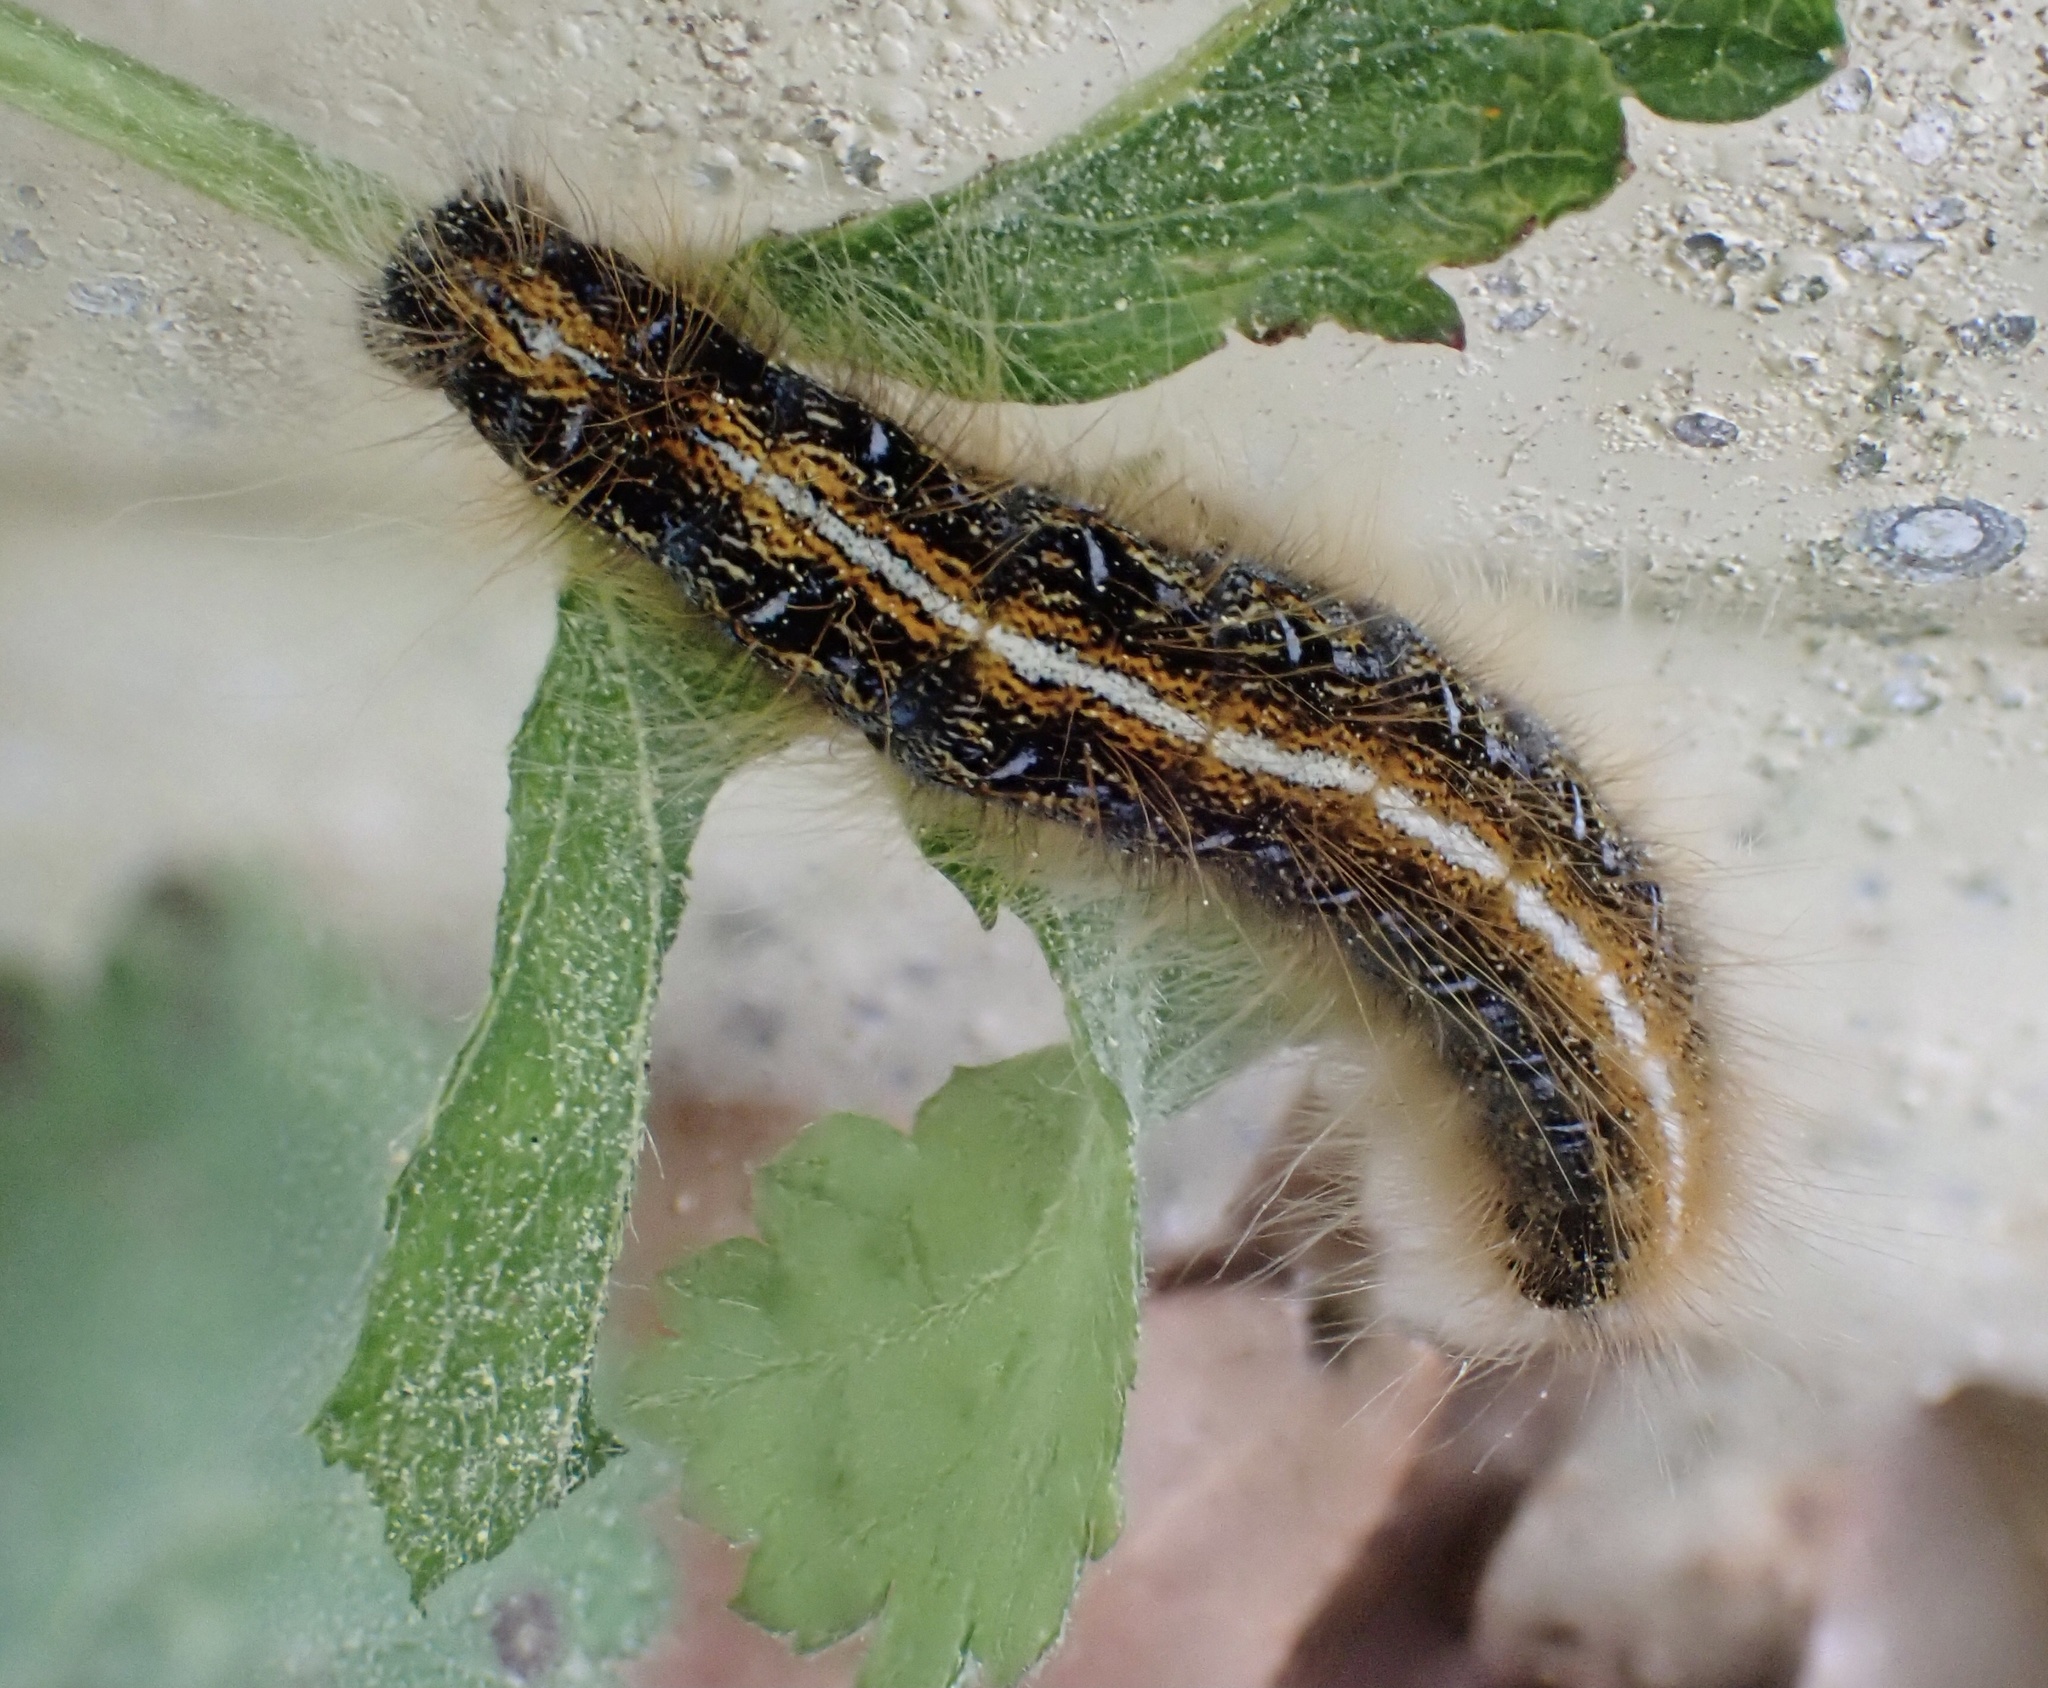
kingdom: Animalia
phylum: Arthropoda
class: Insecta
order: Lepidoptera
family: Lasiocampidae
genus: Malacosoma
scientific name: Malacosoma americana
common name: Eastern tent caterpillar moth
